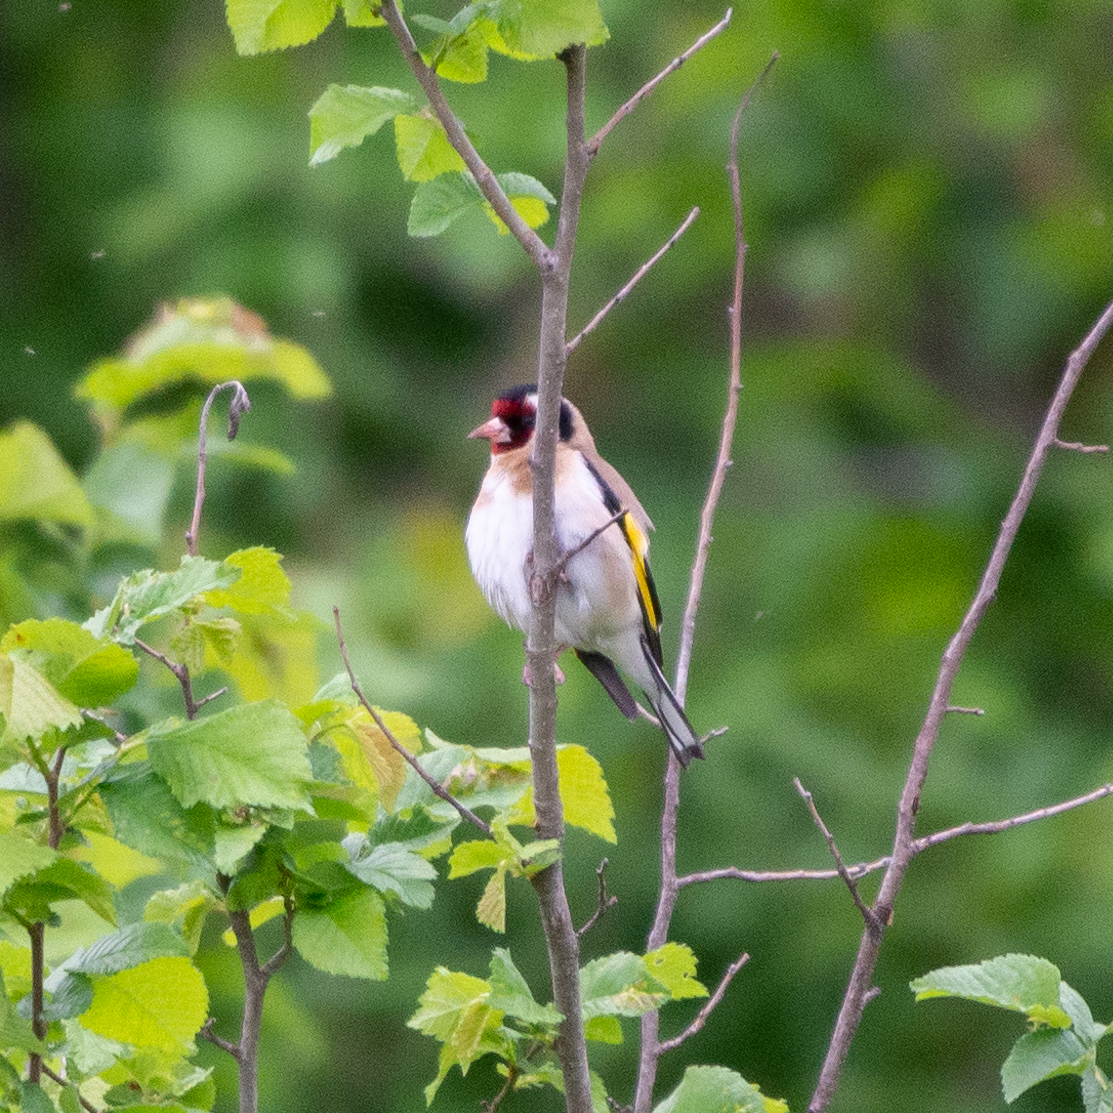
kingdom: Animalia
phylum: Chordata
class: Aves
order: Passeriformes
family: Fringillidae
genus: Carduelis
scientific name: Carduelis carduelis
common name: European goldfinch
